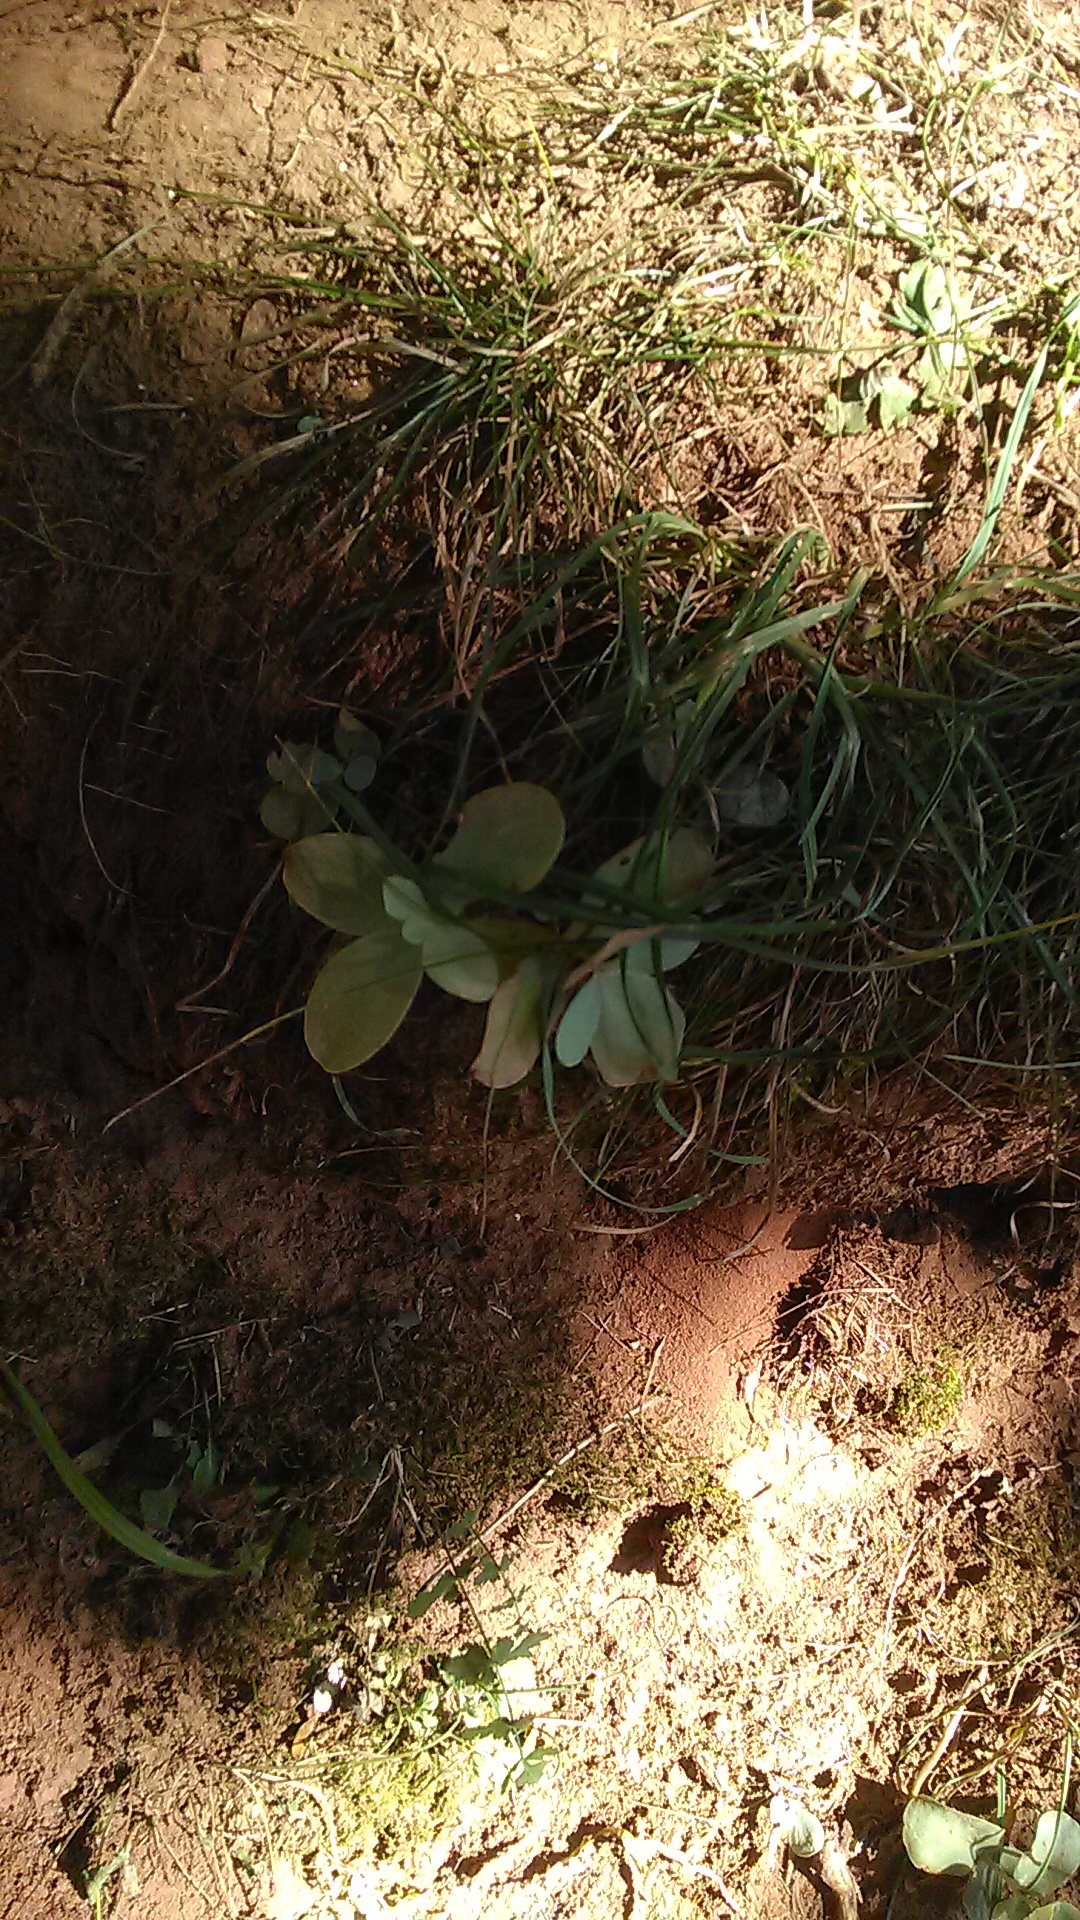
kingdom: Plantae
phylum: Tracheophyta
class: Magnoliopsida
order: Saxifragales
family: Crassulaceae
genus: Hylotelephium
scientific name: Hylotelephium maximum
